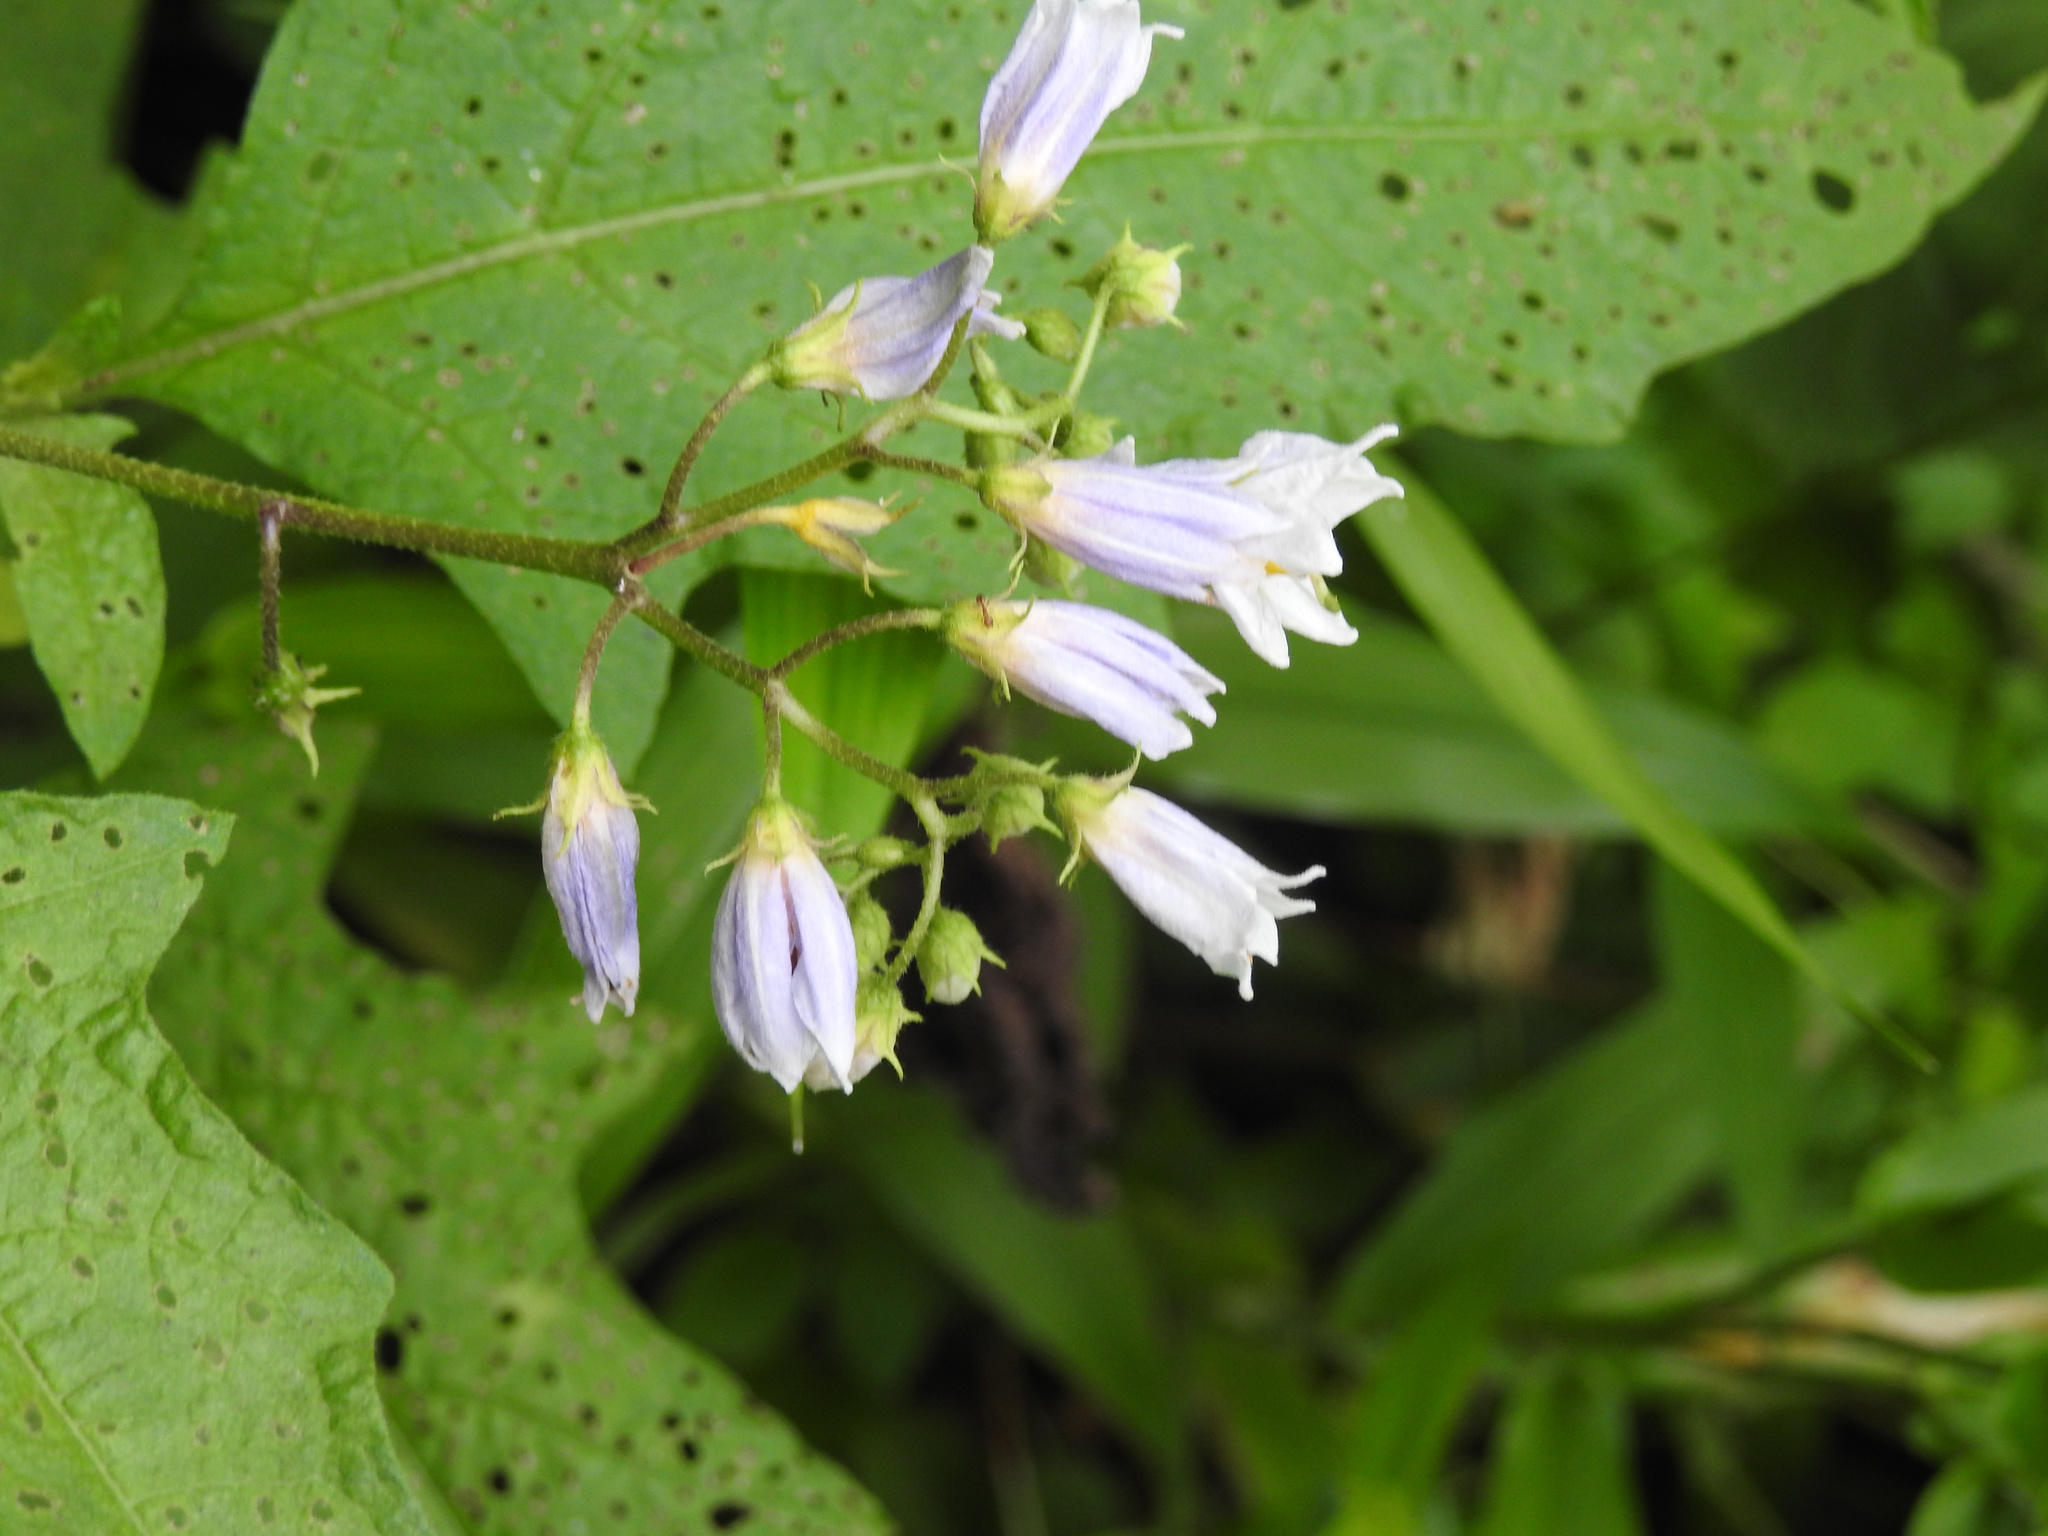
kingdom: Plantae
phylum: Tracheophyta
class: Magnoliopsida
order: Solanales
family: Solanaceae
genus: Solanum
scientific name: Solanum carolinense
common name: Horse-nettle
